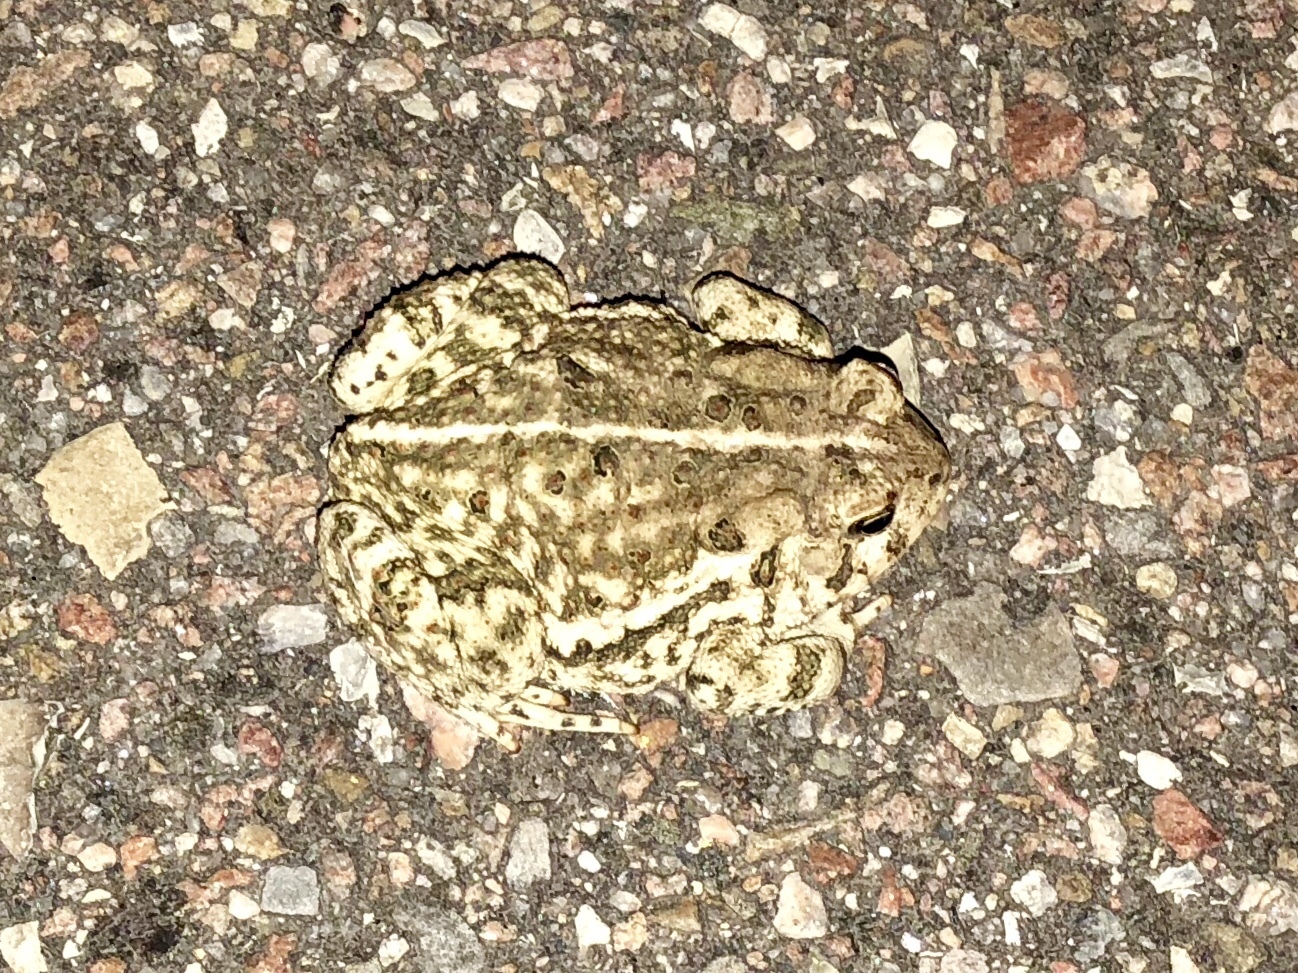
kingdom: Animalia
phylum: Chordata
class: Amphibia
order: Anura
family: Bufonidae
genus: Anaxyrus
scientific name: Anaxyrus woodhousii
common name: Woodhouse's toad
